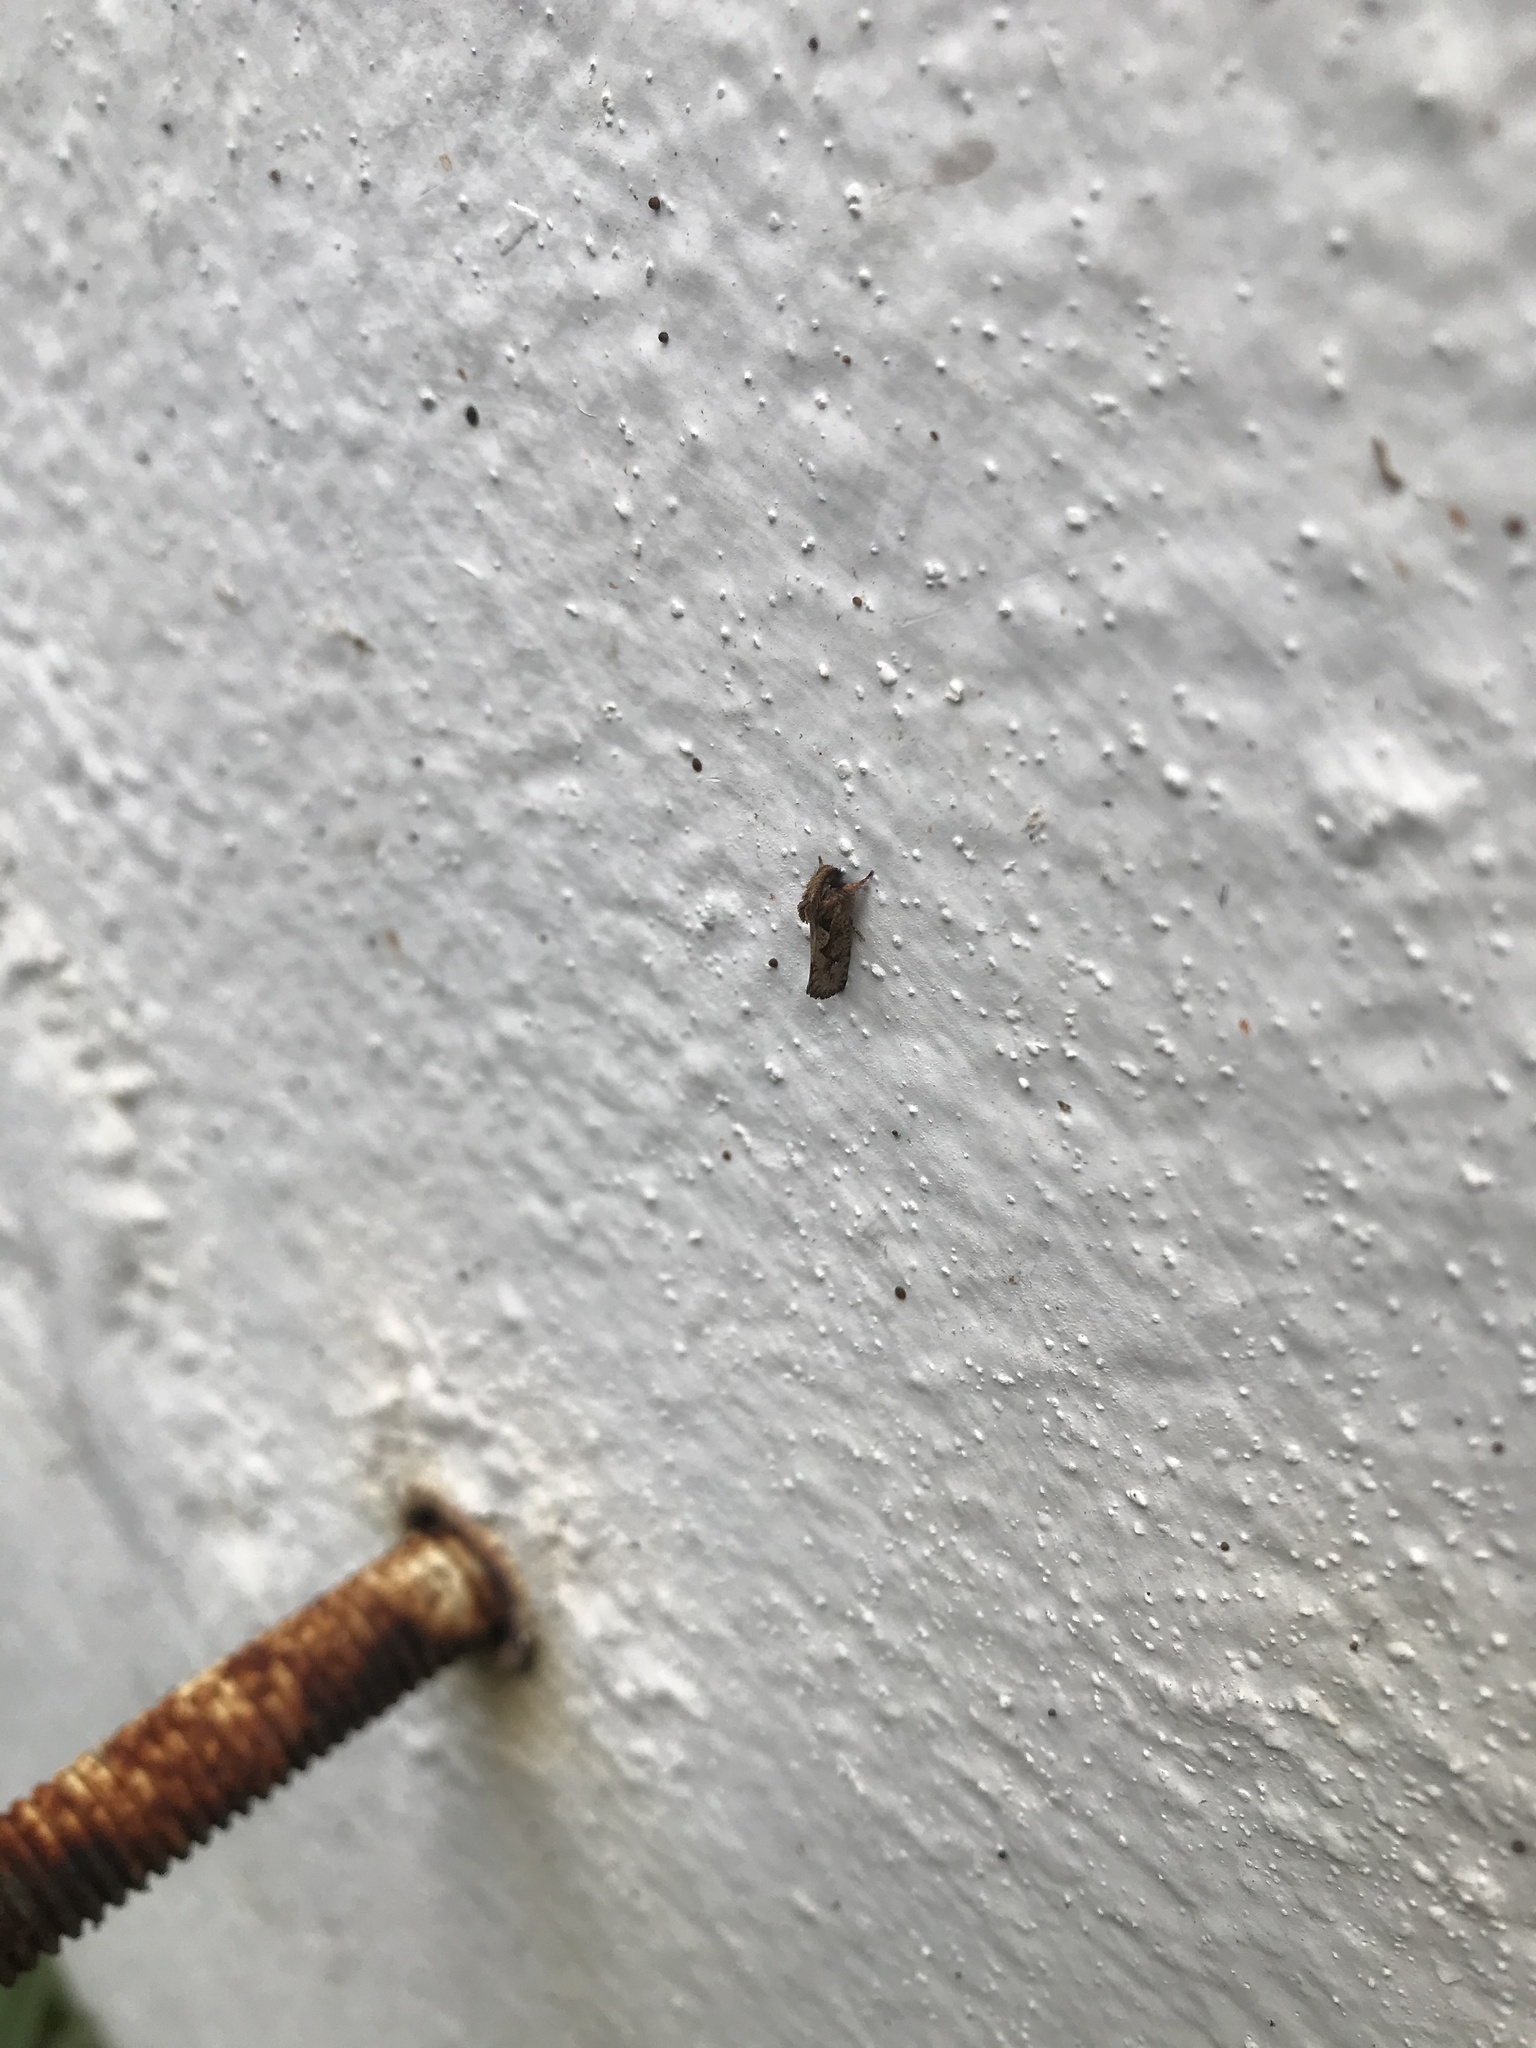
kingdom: Animalia
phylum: Arthropoda
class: Insecta
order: Lepidoptera
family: Tineidae
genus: Acrolophus
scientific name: Acrolophus walsinghami
